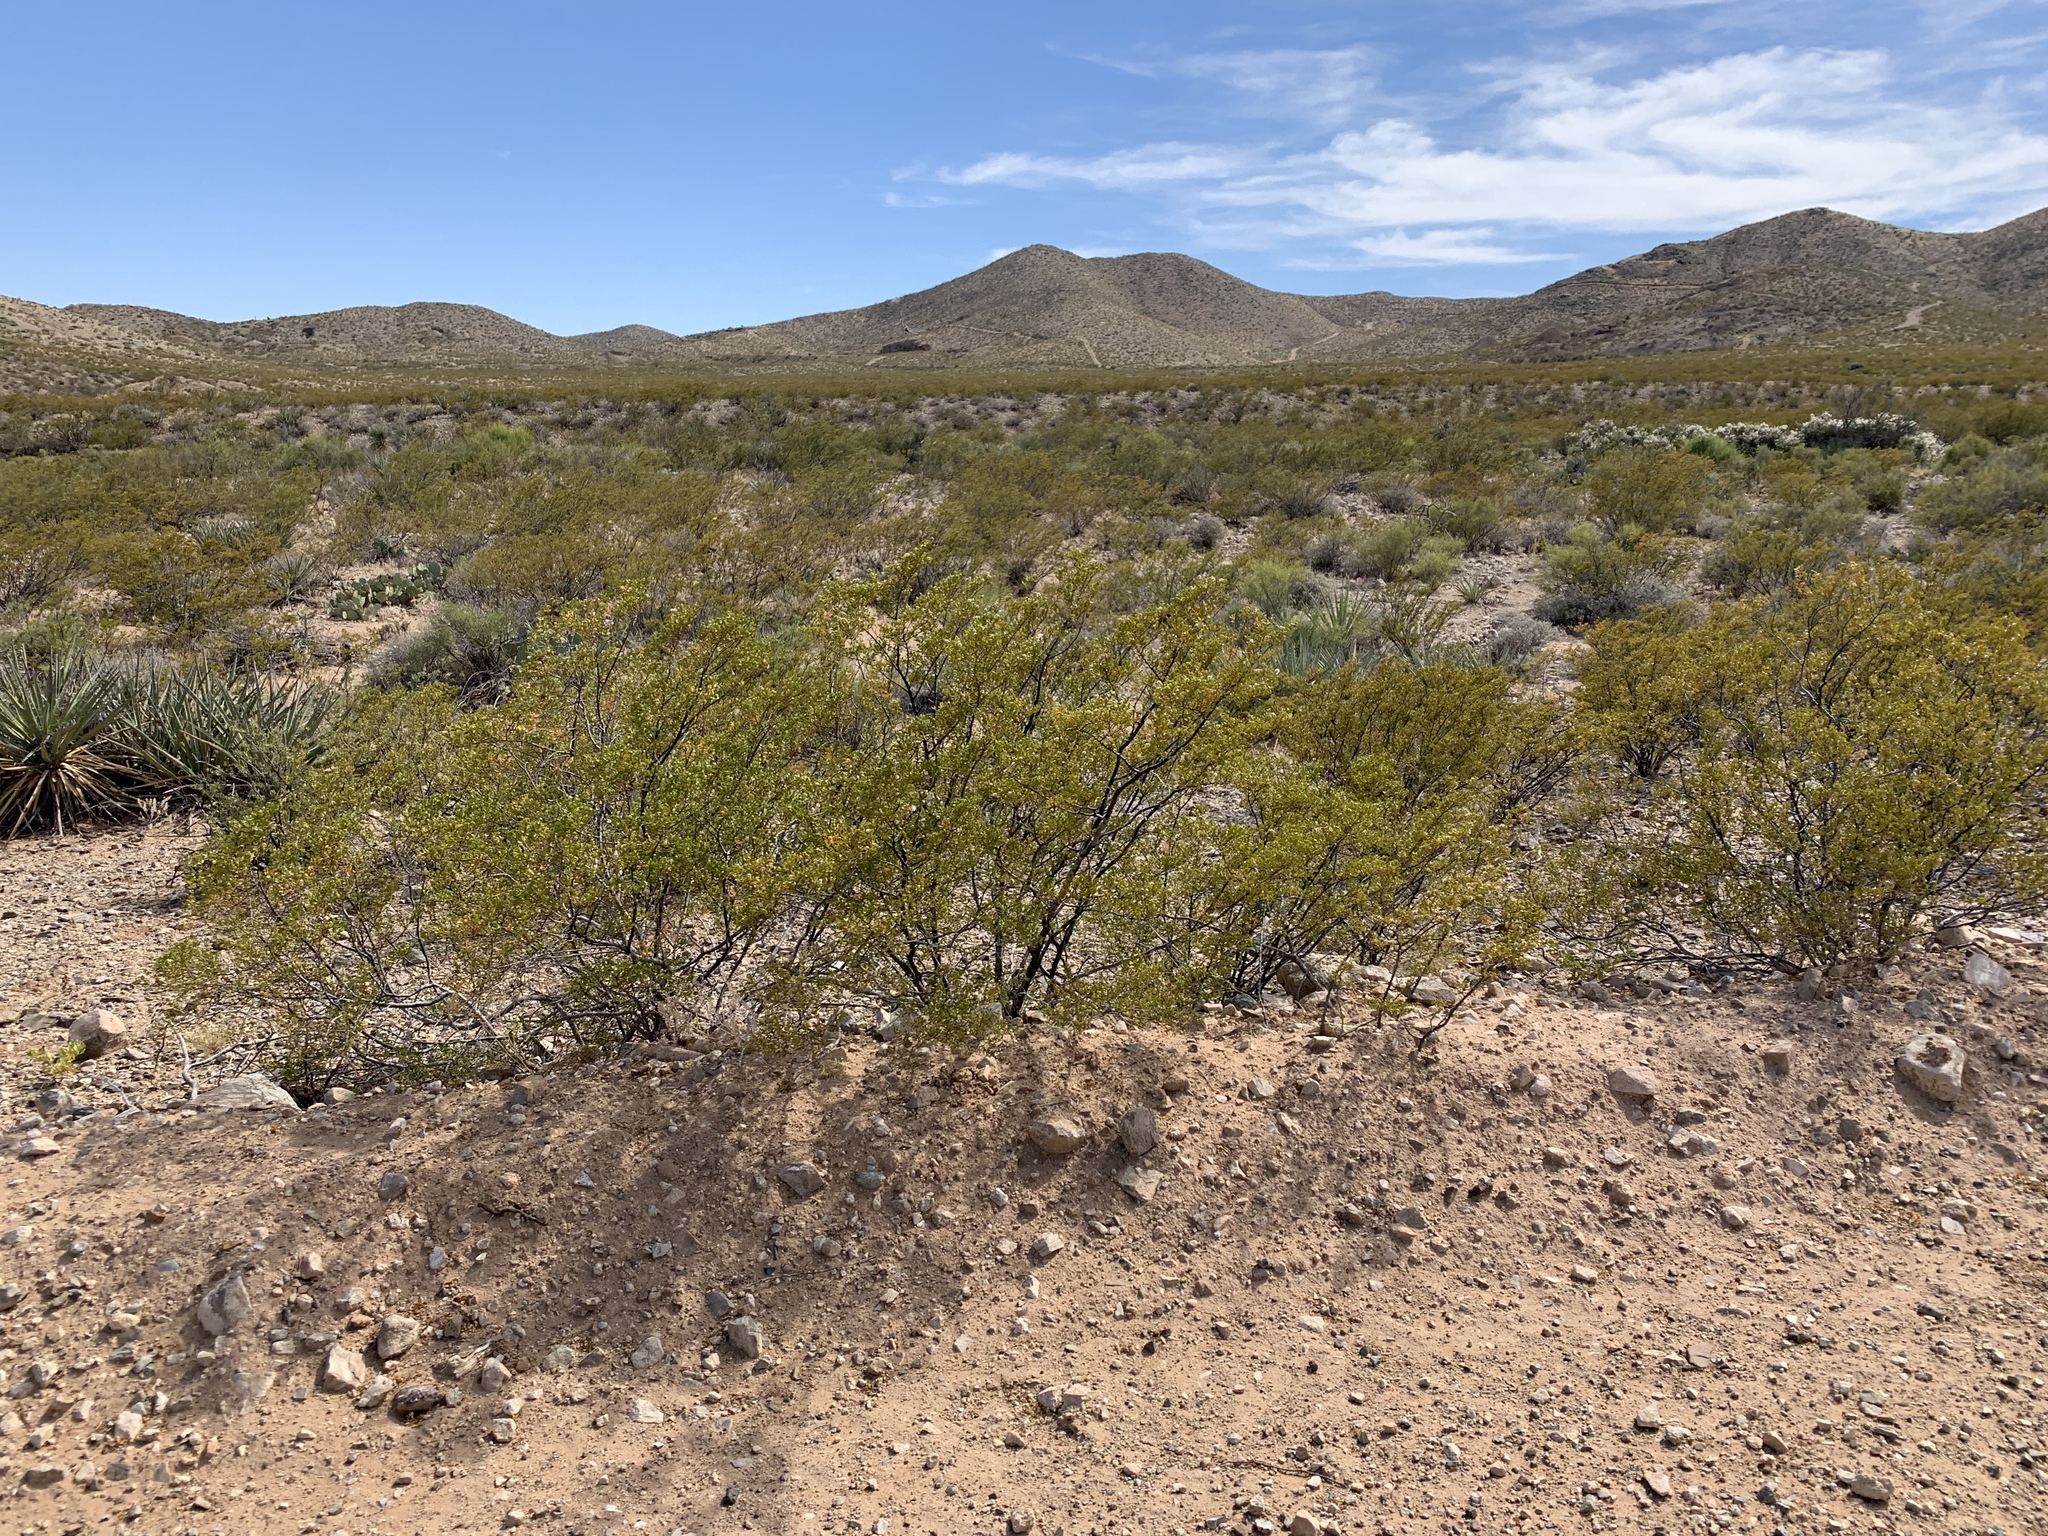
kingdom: Plantae
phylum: Tracheophyta
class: Magnoliopsida
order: Zygophyllales
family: Zygophyllaceae
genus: Larrea
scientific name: Larrea tridentata
